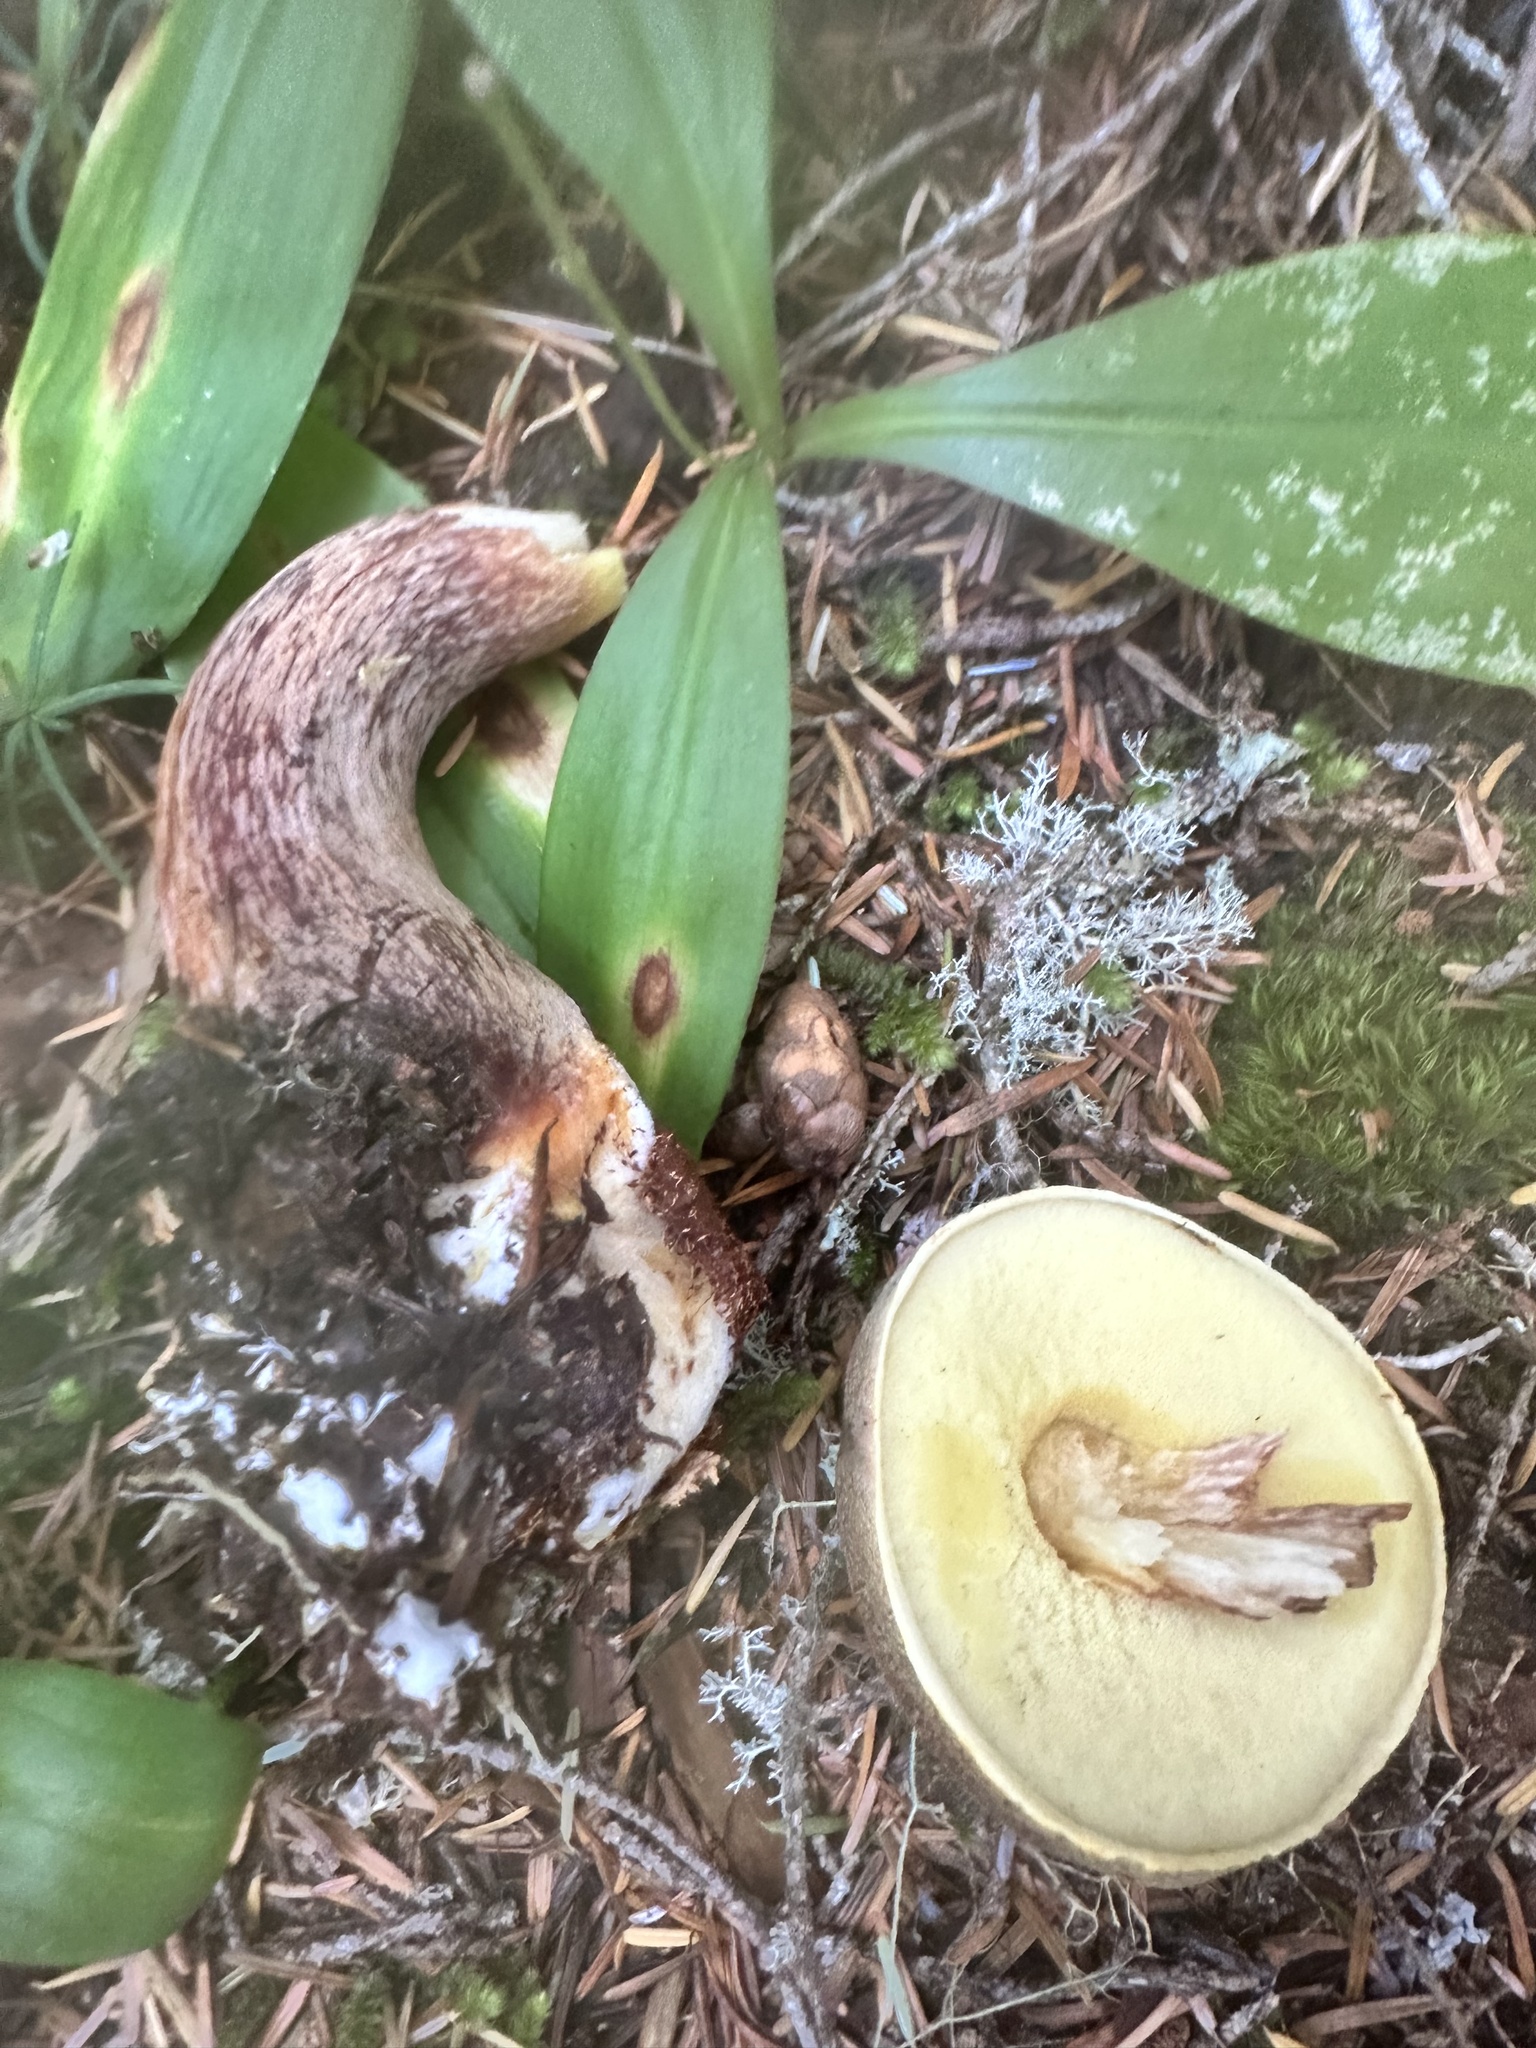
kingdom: Fungi
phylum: Basidiomycota
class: Agaricomycetes
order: Boletales
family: Boletaceae
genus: Aureoboletus
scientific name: Aureoboletus mirabilis
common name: Admirable bolete
